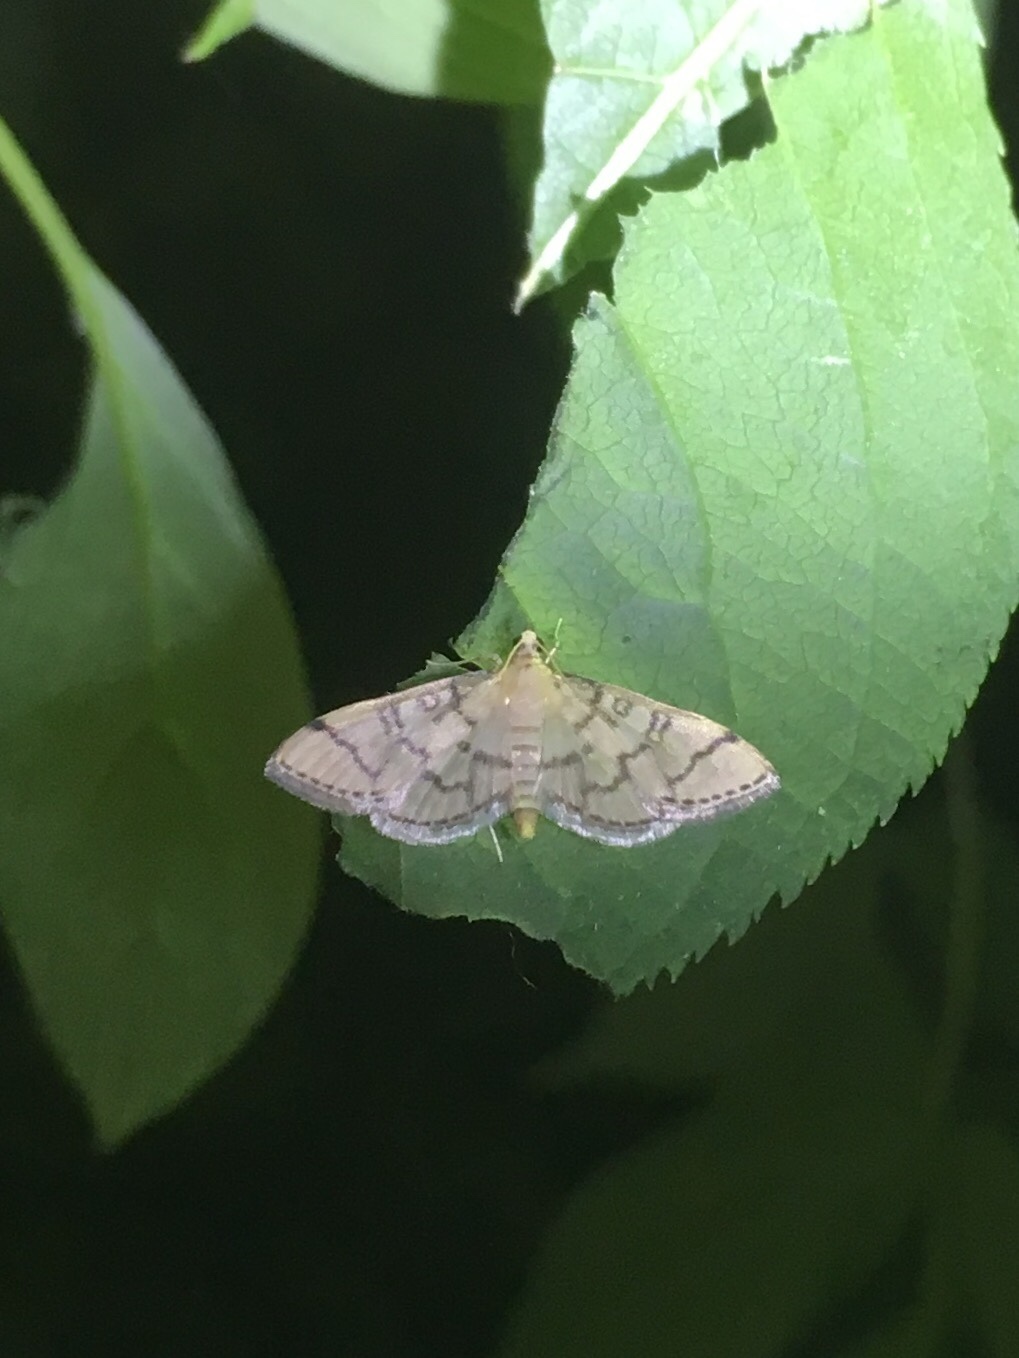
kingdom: Animalia
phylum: Arthropoda
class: Insecta
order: Lepidoptera
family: Crambidae
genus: Lamprosema
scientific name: Lamprosema Blepharomastix ranalis
